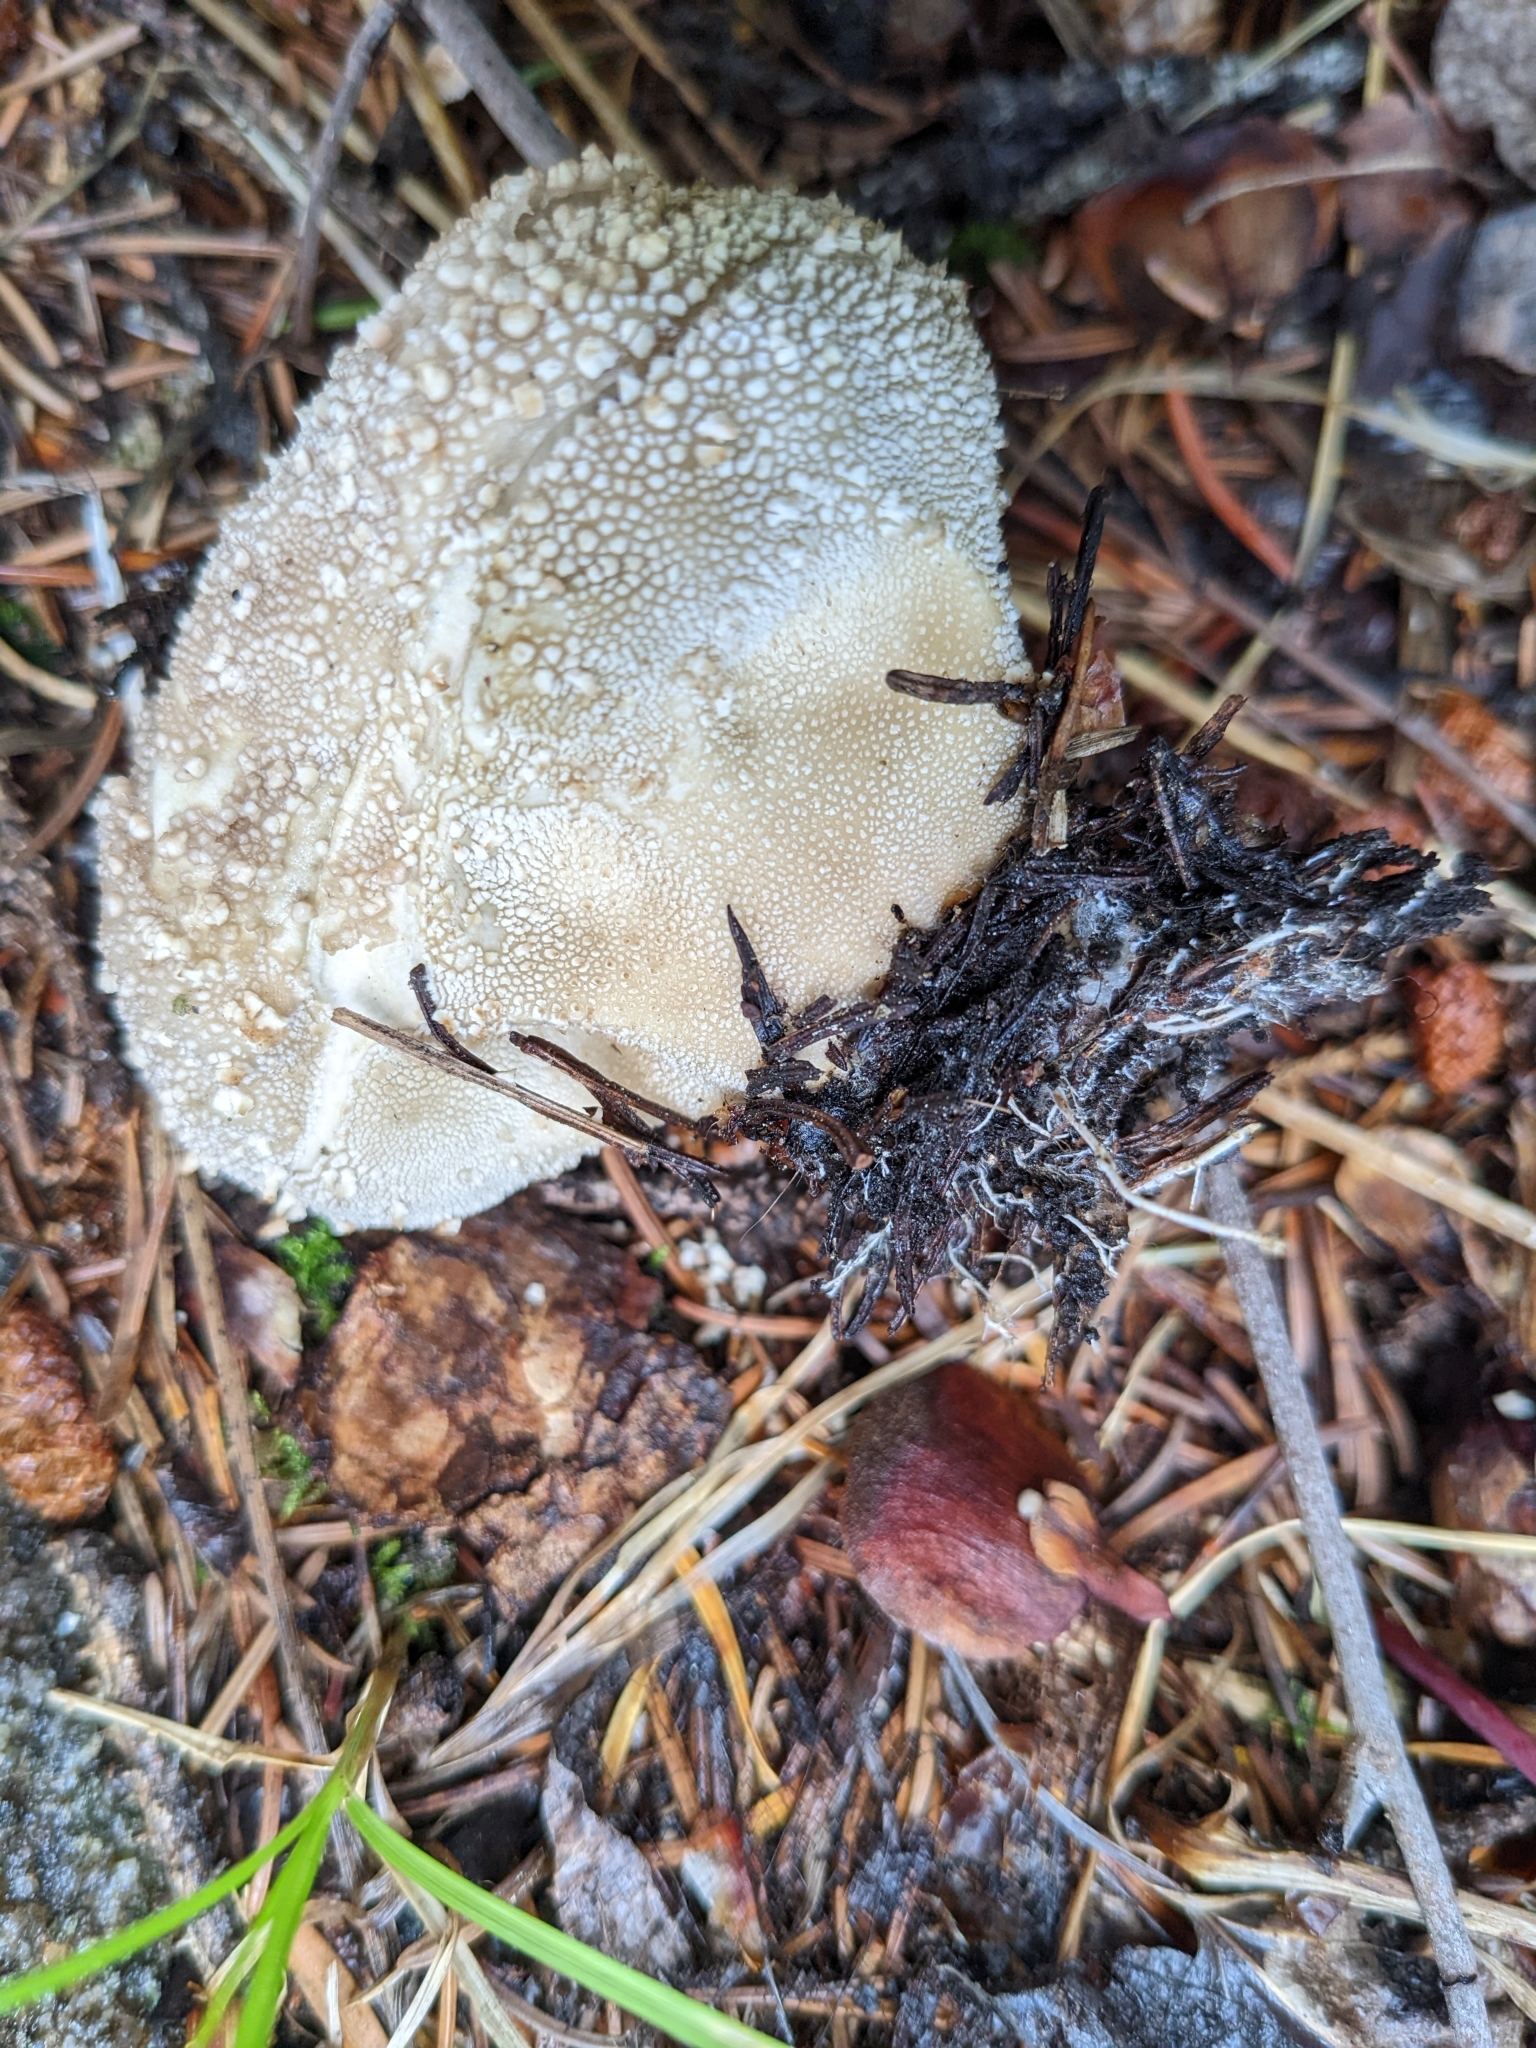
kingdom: Fungi
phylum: Basidiomycota
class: Agaricomycetes
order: Agaricales
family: Lycoperdaceae
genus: Lycoperdon
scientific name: Lycoperdon perlatum
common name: Common puffball
